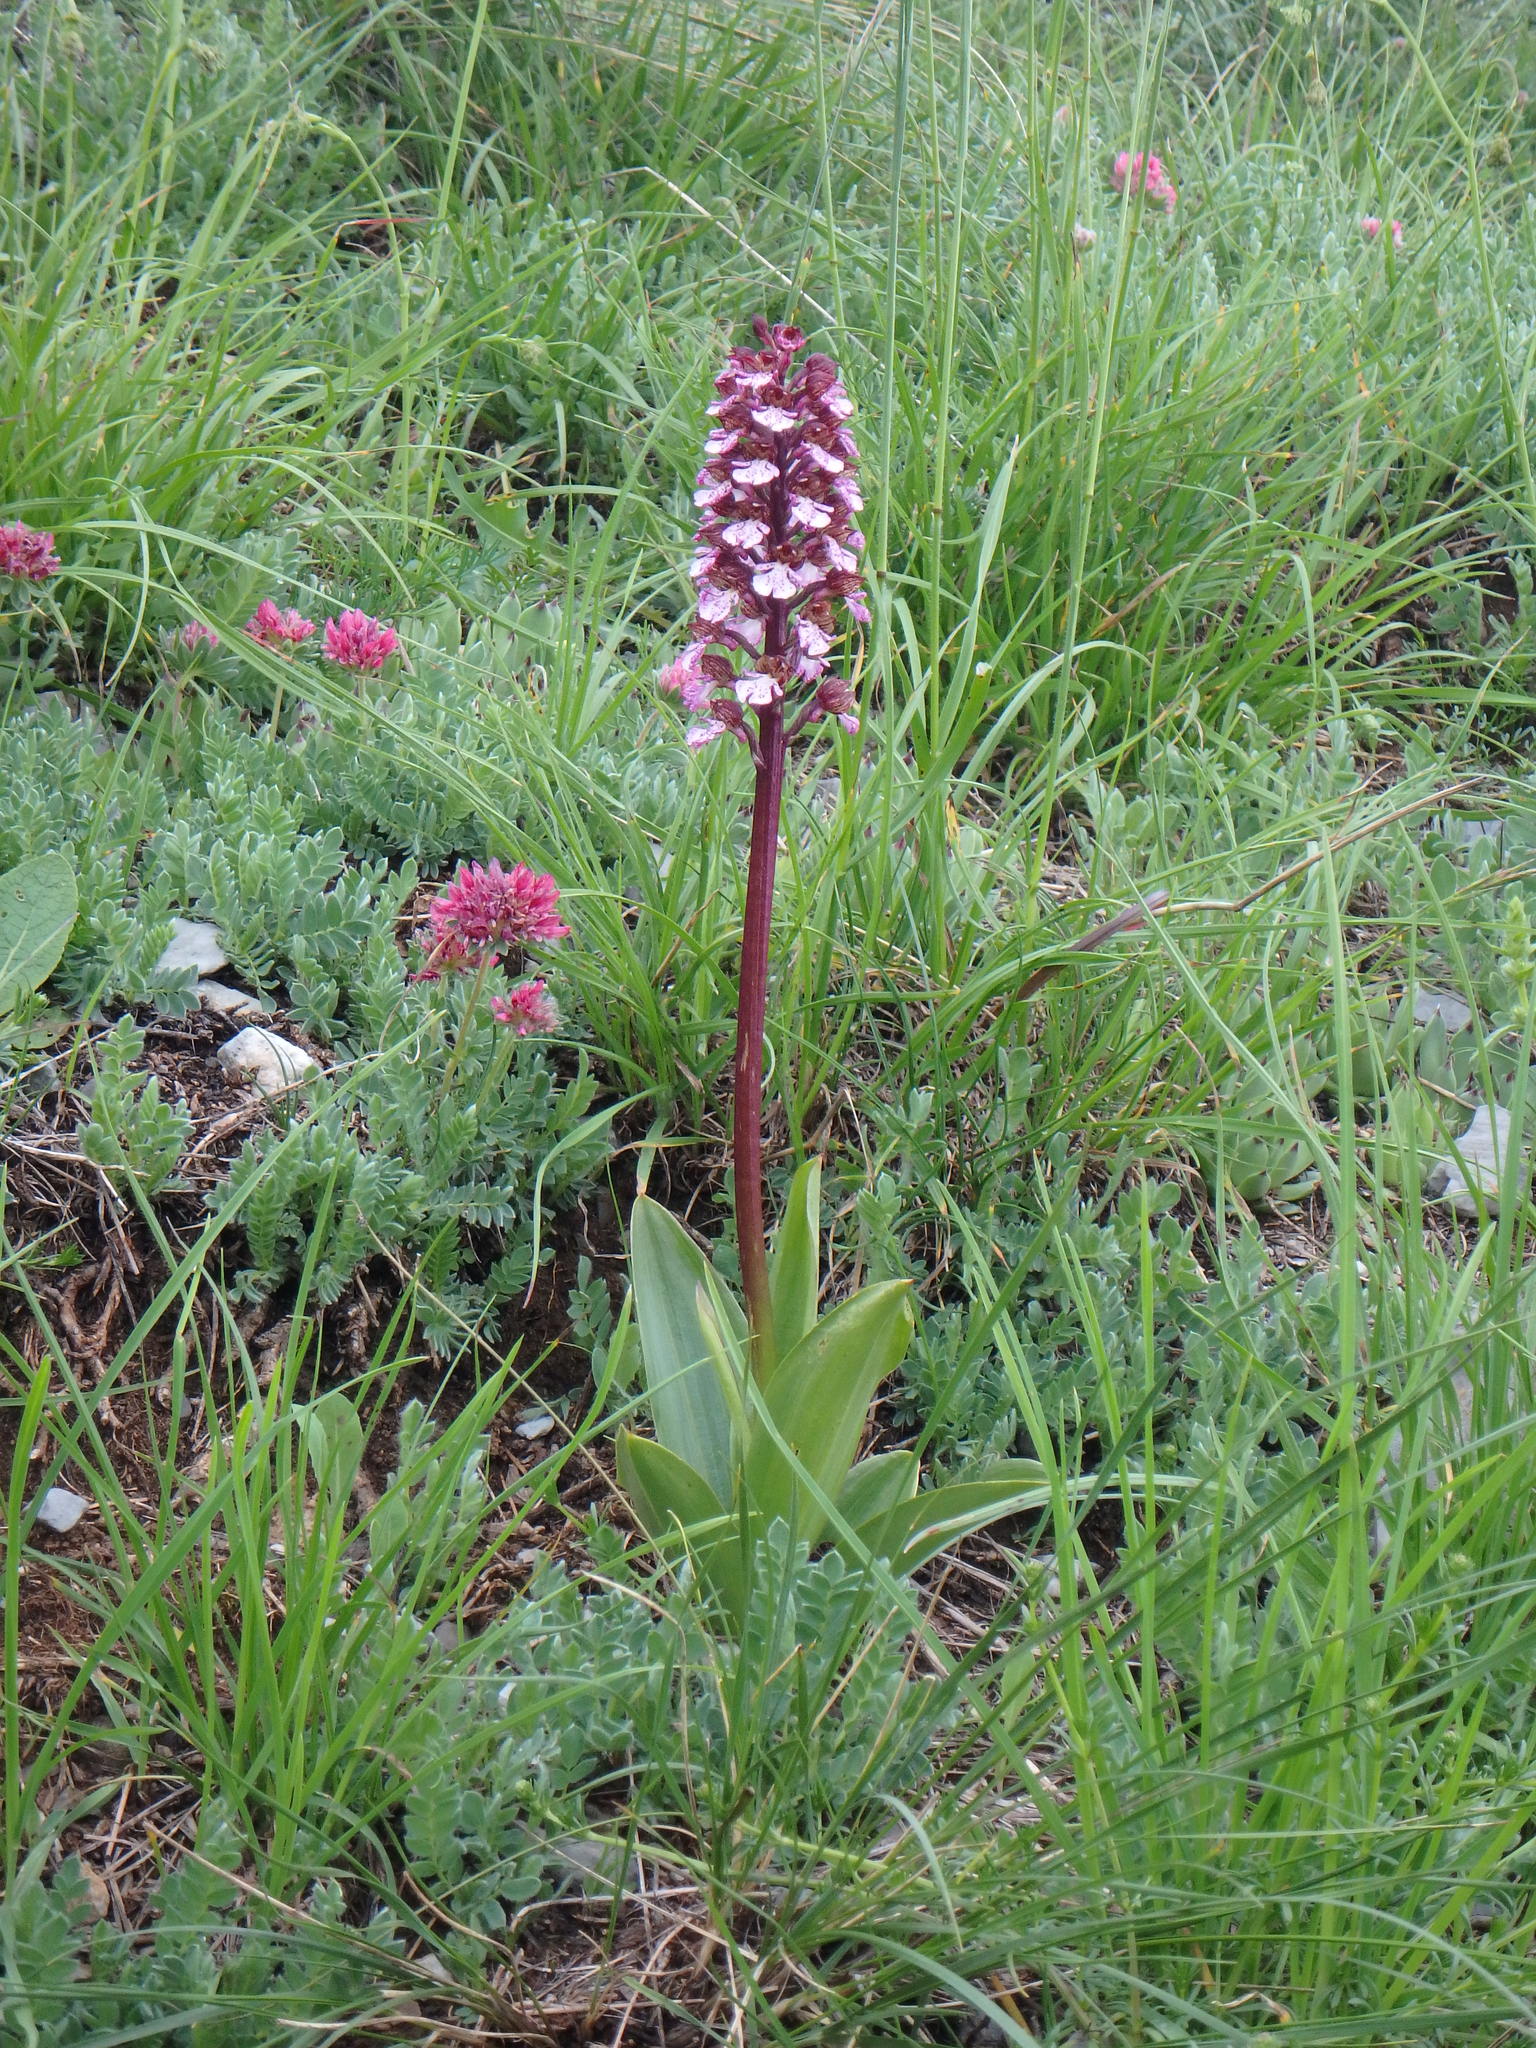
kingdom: Plantae
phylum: Tracheophyta
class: Liliopsida
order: Asparagales
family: Orchidaceae
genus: Orchis
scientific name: Orchis purpurea
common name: Lady orchid
